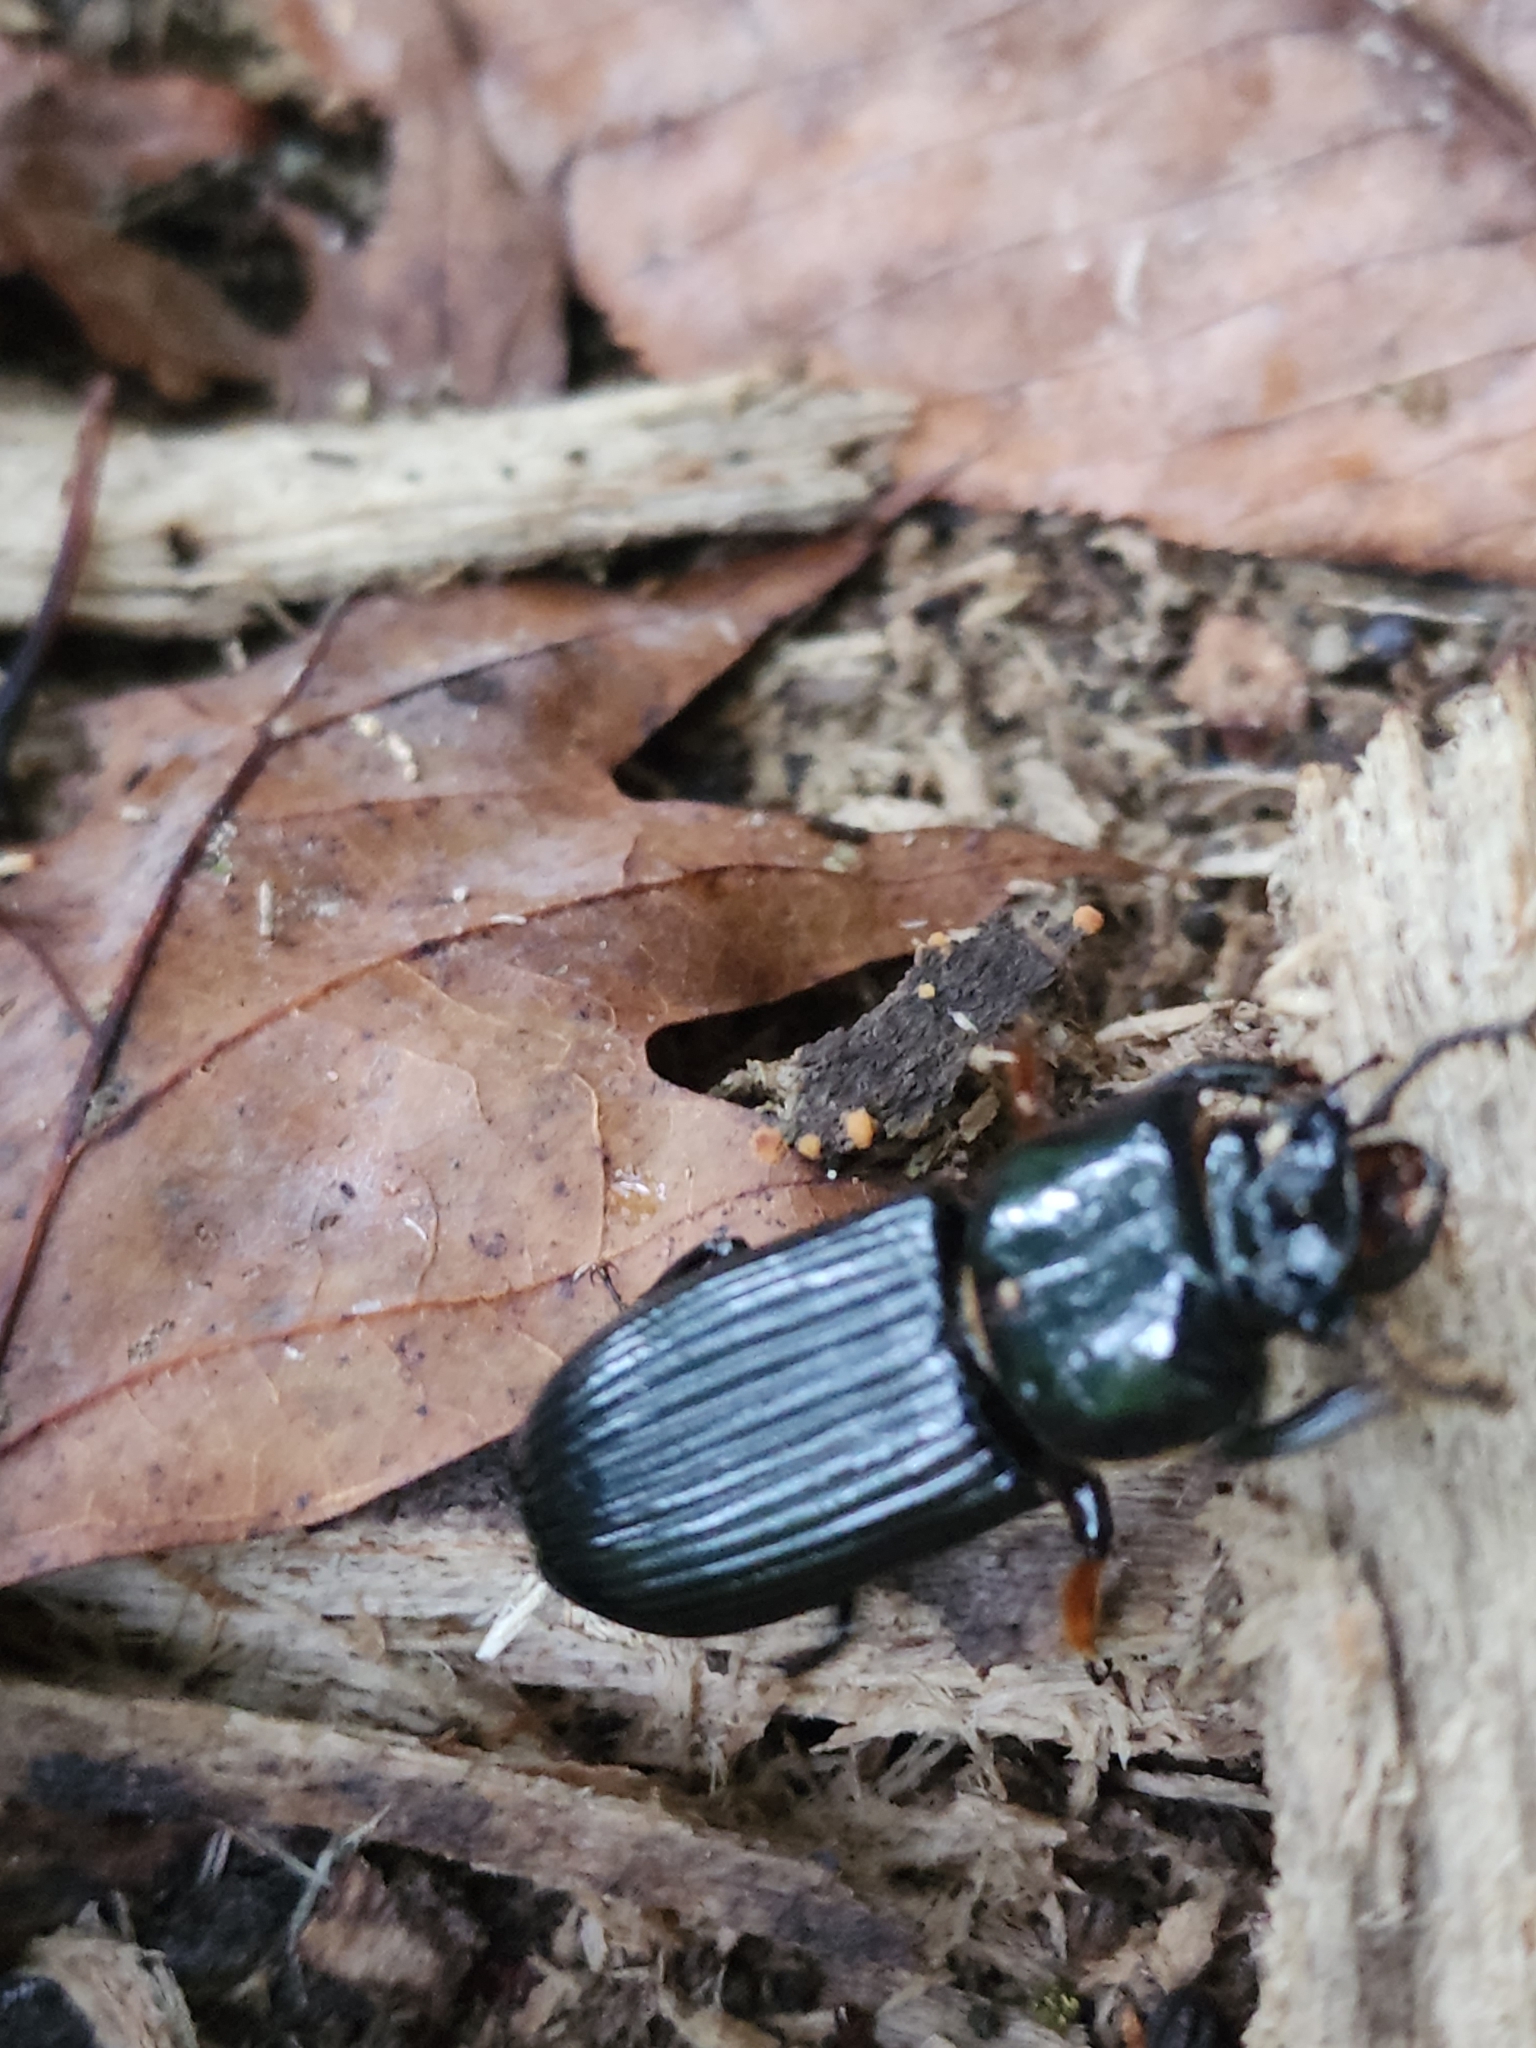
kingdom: Animalia
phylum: Arthropoda
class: Insecta
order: Coleoptera
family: Passalidae
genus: Odontotaenius
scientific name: Odontotaenius disjunctus
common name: Patent leather beetle
